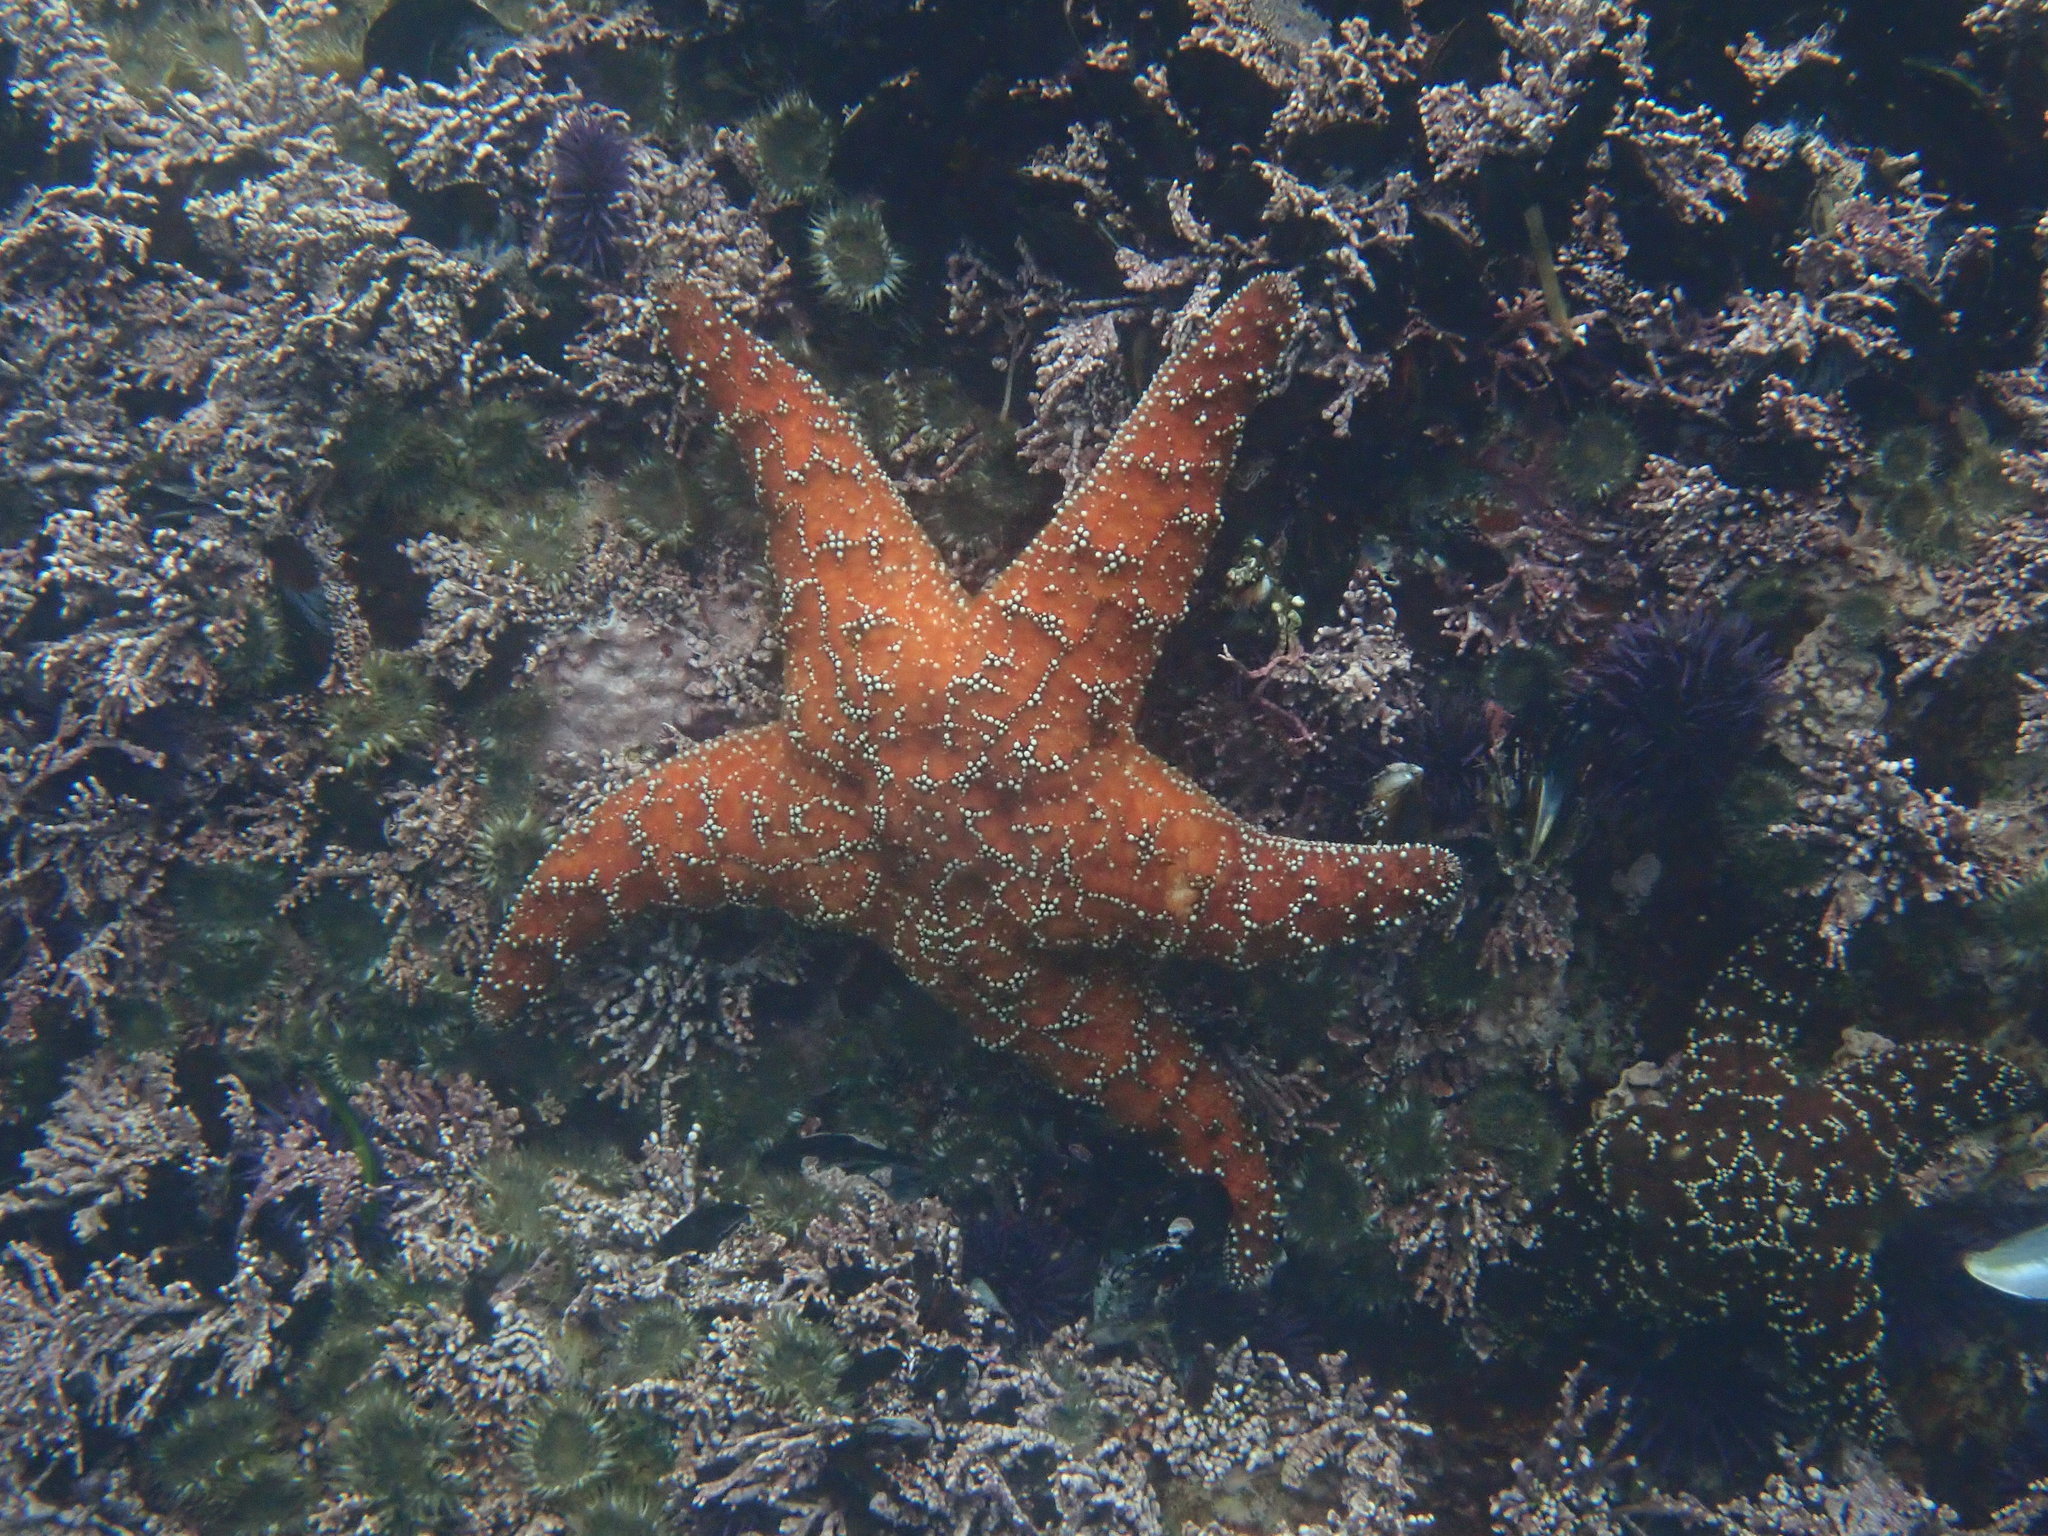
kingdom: Animalia
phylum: Echinodermata
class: Asteroidea
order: Forcipulatida
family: Asteriidae
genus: Pisaster
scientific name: Pisaster ochraceus
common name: Ochre stars
